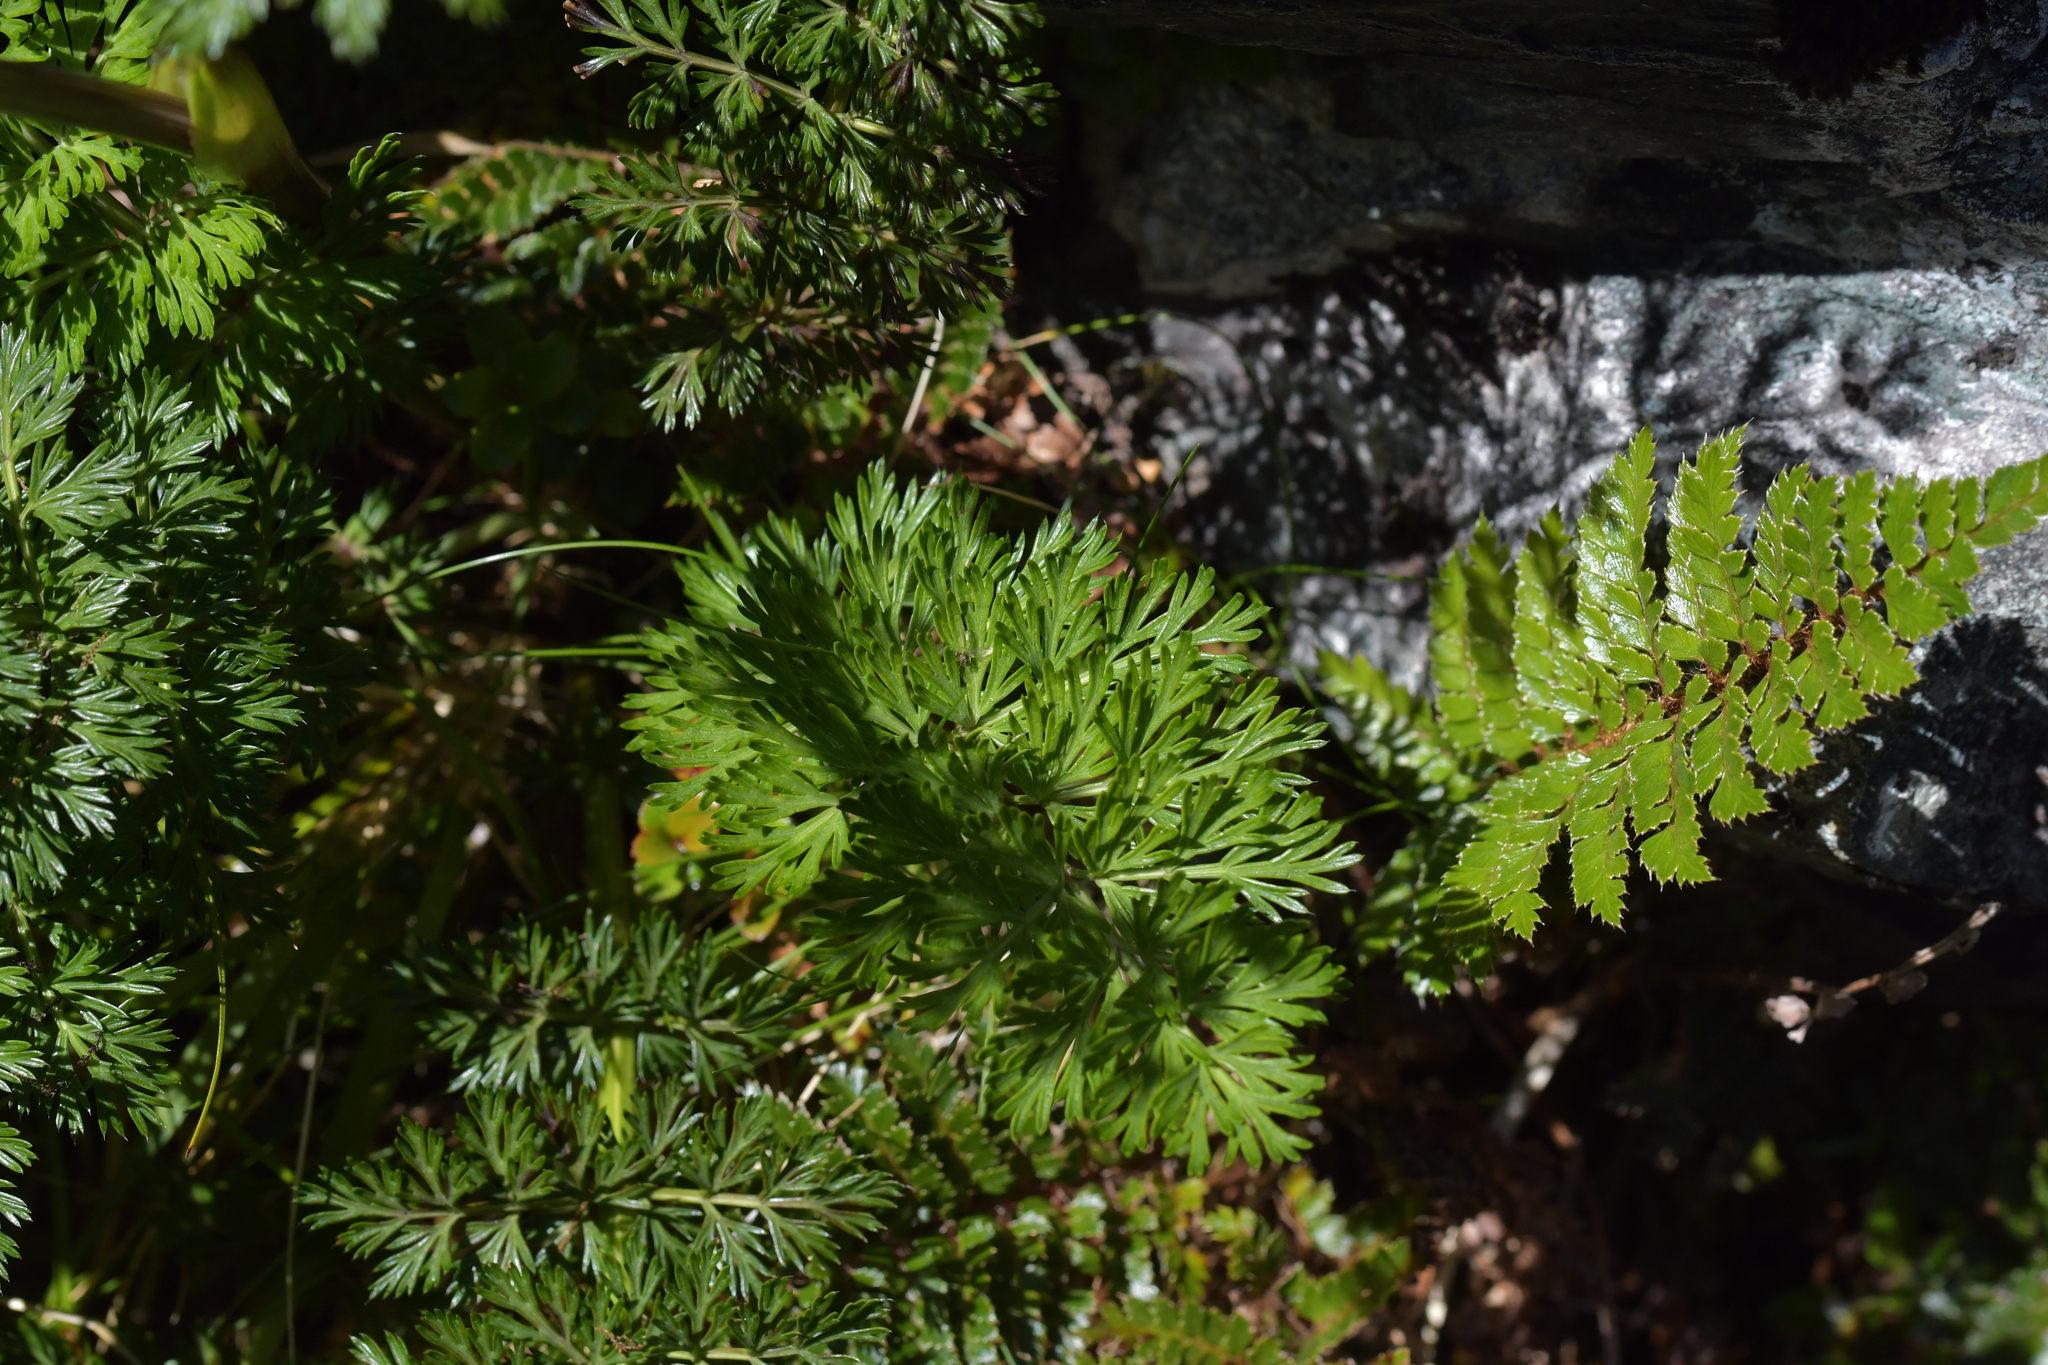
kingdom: Plantae
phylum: Tracheophyta
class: Magnoliopsida
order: Apiales
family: Apiaceae
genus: Anisotome
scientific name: Anisotome haastii
